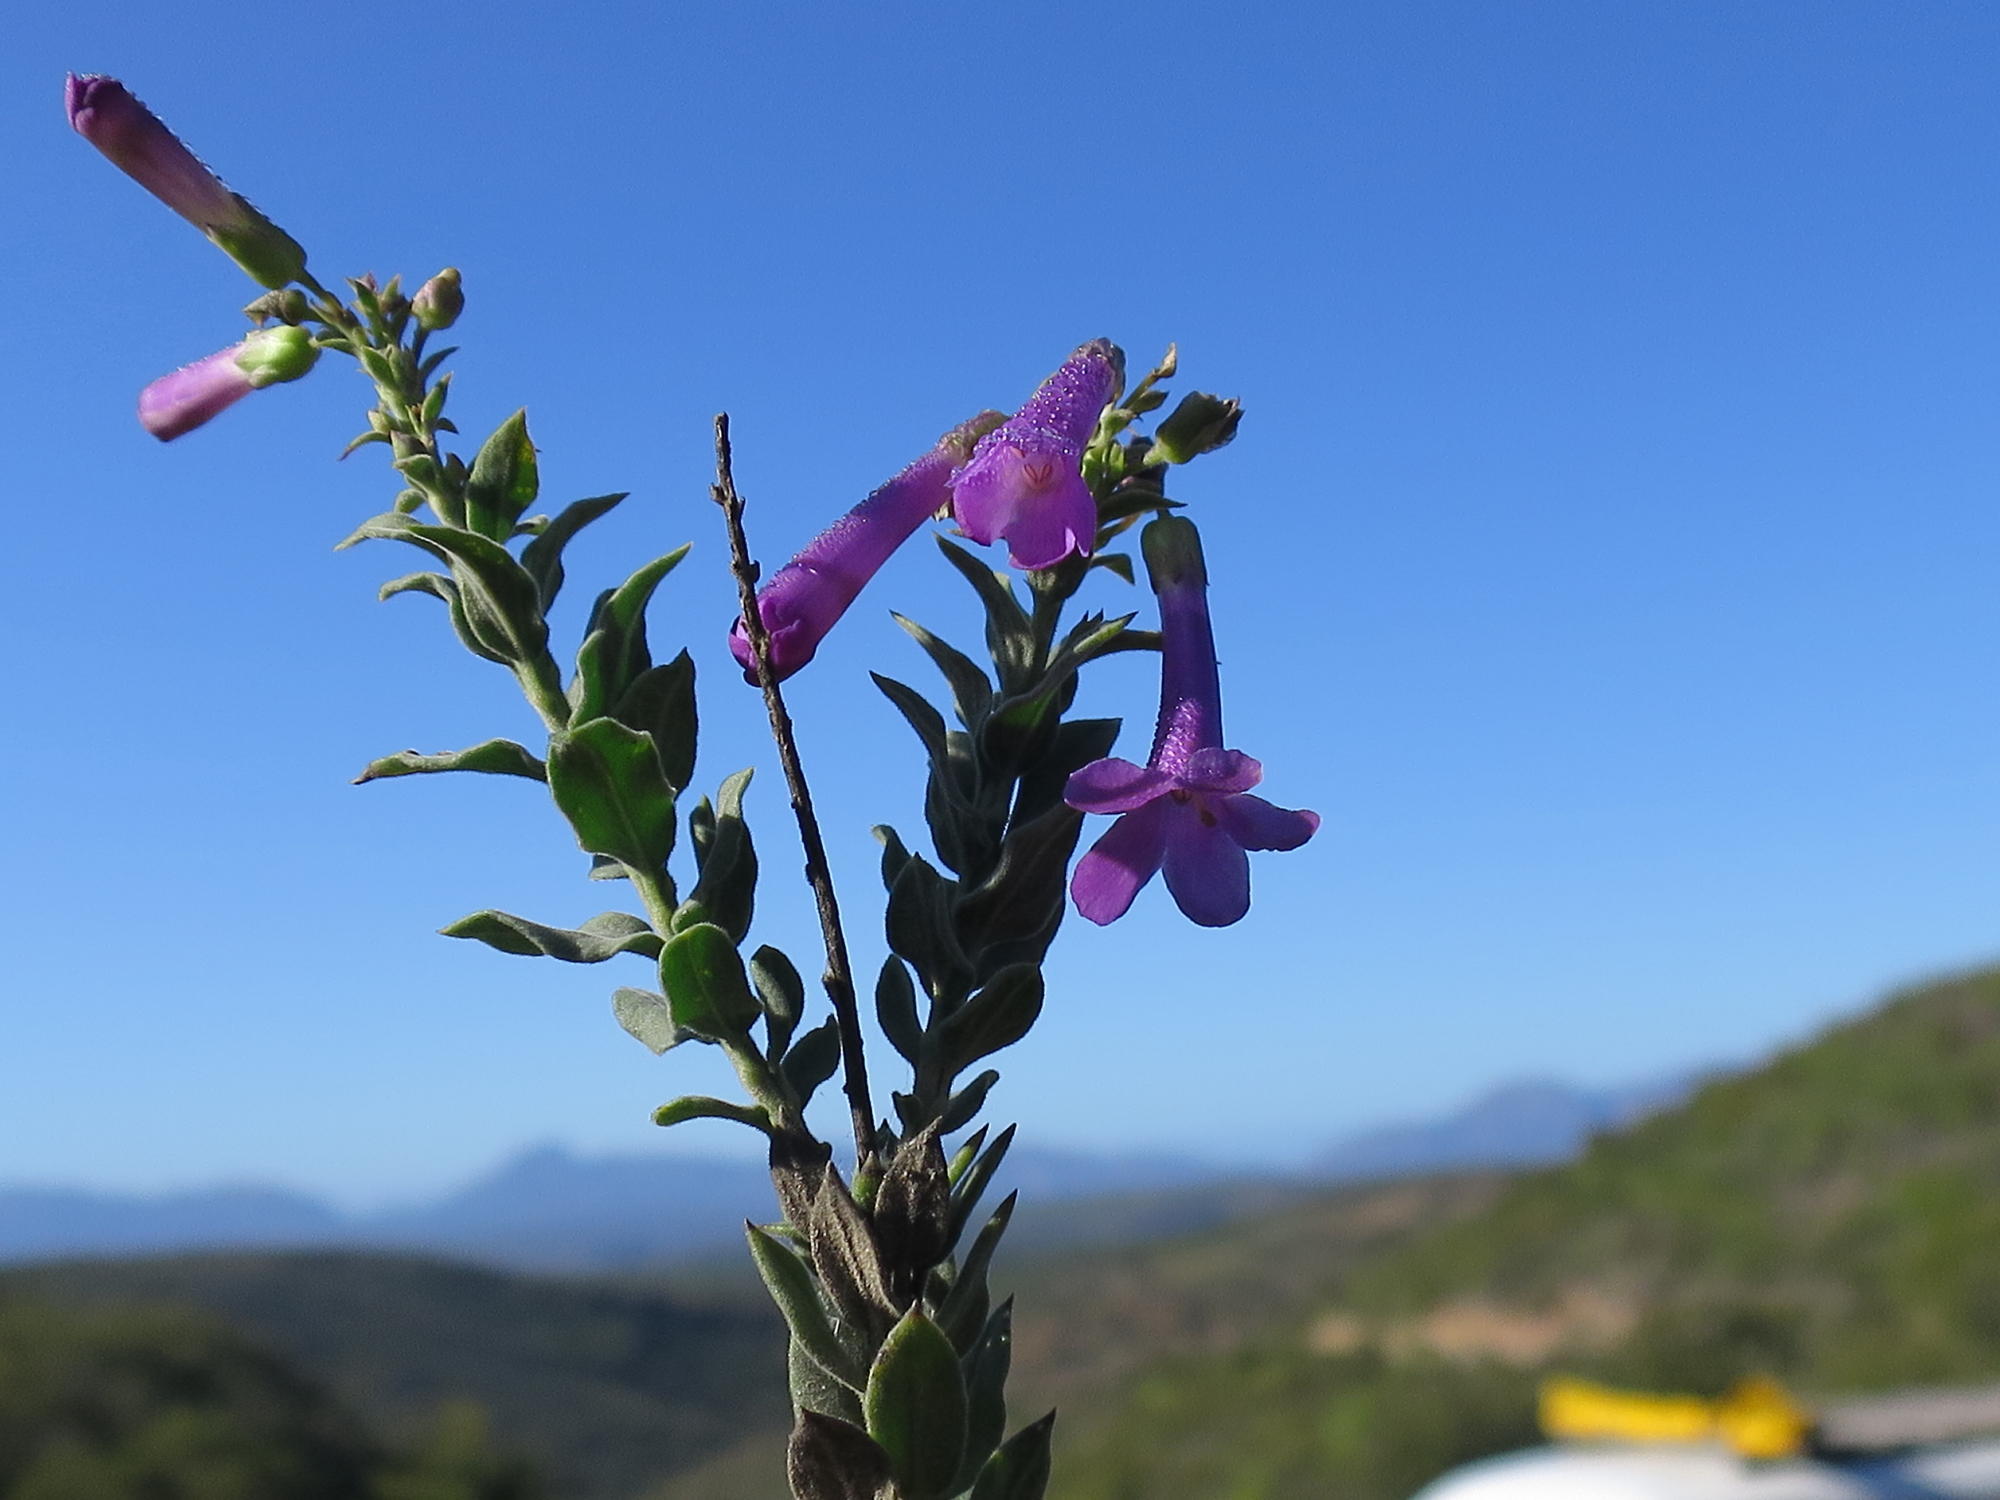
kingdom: Plantae
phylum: Tracheophyta
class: Magnoliopsida
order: Lamiales
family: Scrophulariaceae
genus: Freylinia
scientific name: Freylinia vlokii
